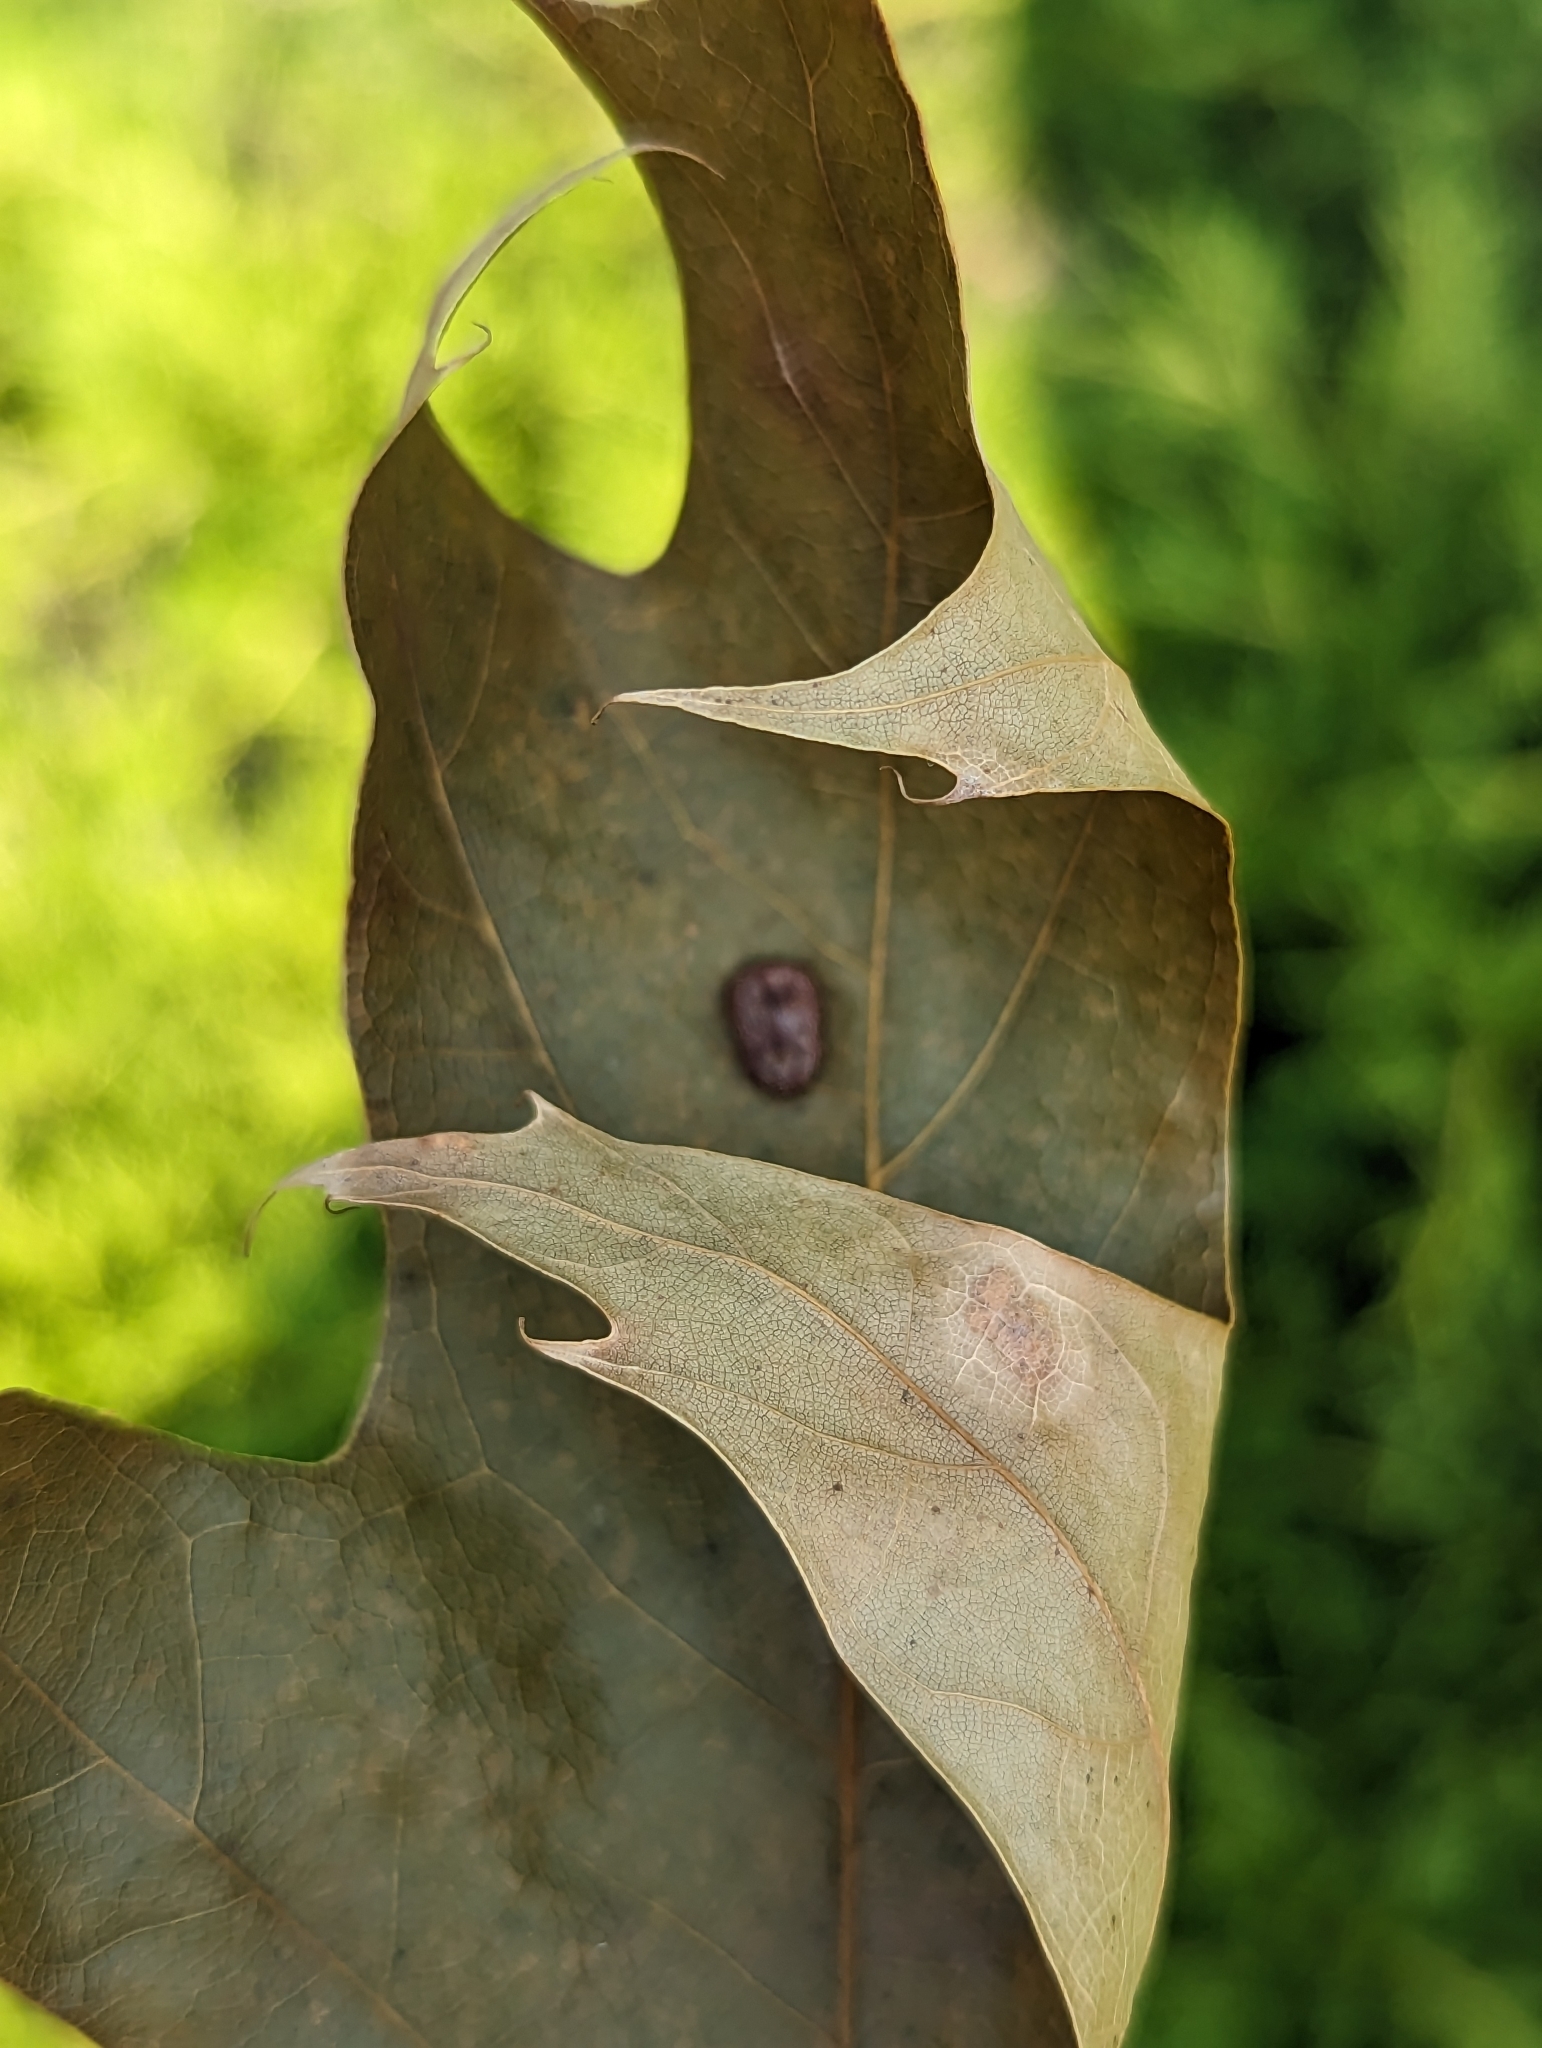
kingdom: Animalia
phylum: Arthropoda
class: Insecta
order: Diptera
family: Cecidomyiidae
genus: Polystepha
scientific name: Polystepha pilulae
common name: Oak leaf gall midge
